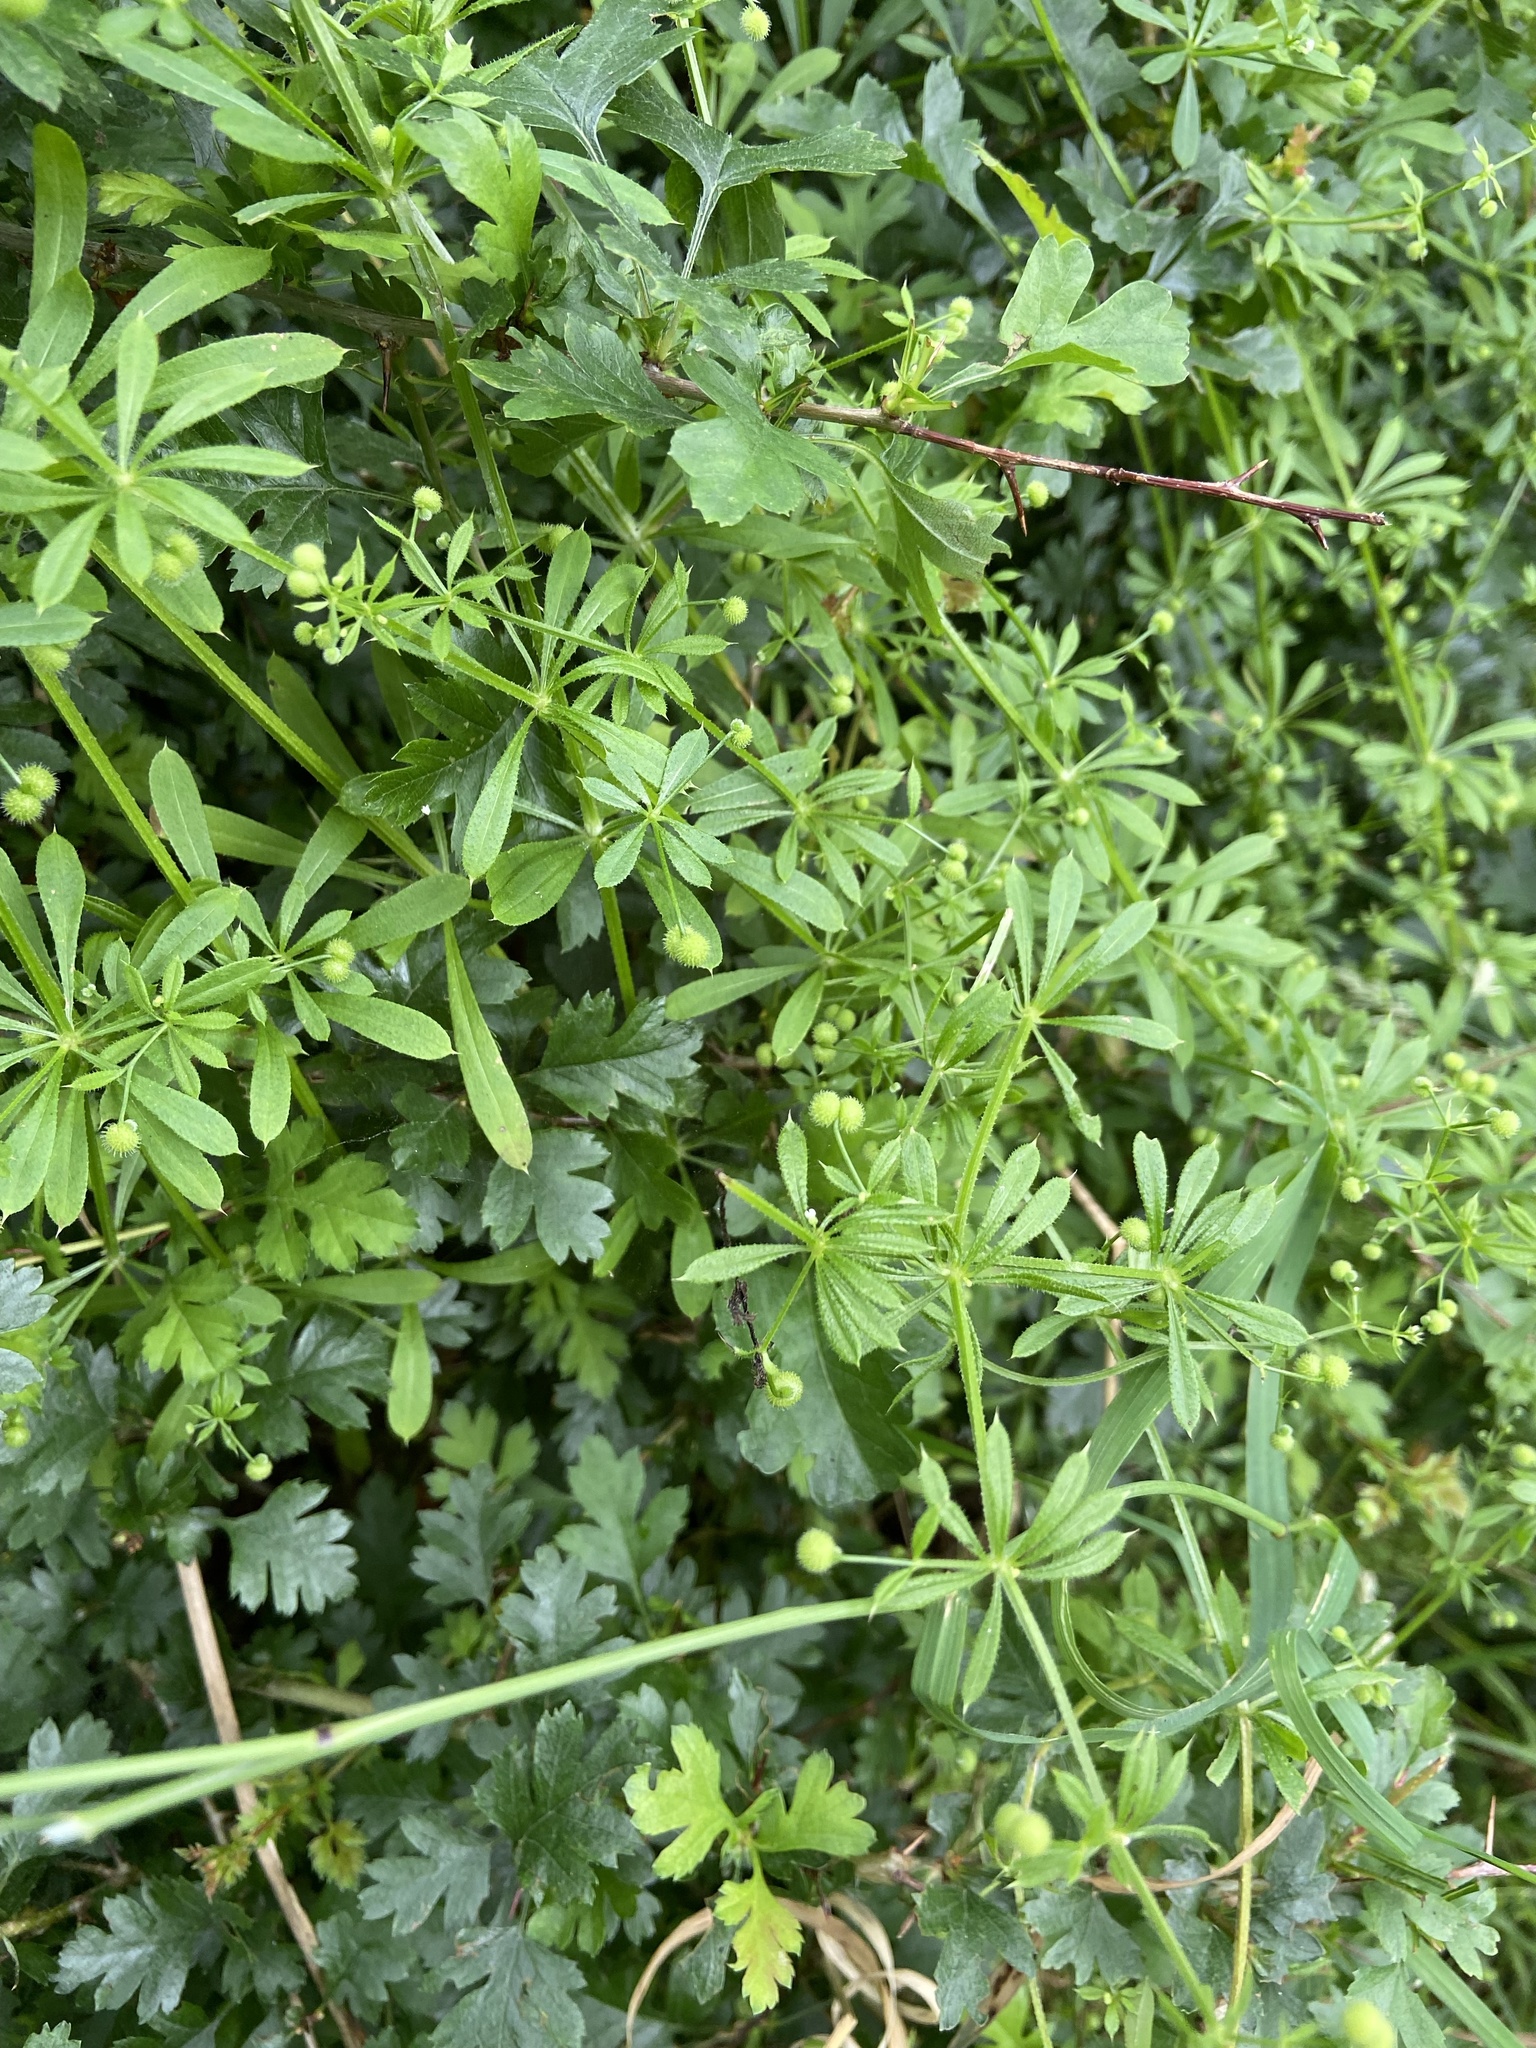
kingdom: Plantae
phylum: Tracheophyta
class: Magnoliopsida
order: Gentianales
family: Rubiaceae
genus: Galium
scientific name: Galium aparine
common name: Cleavers
